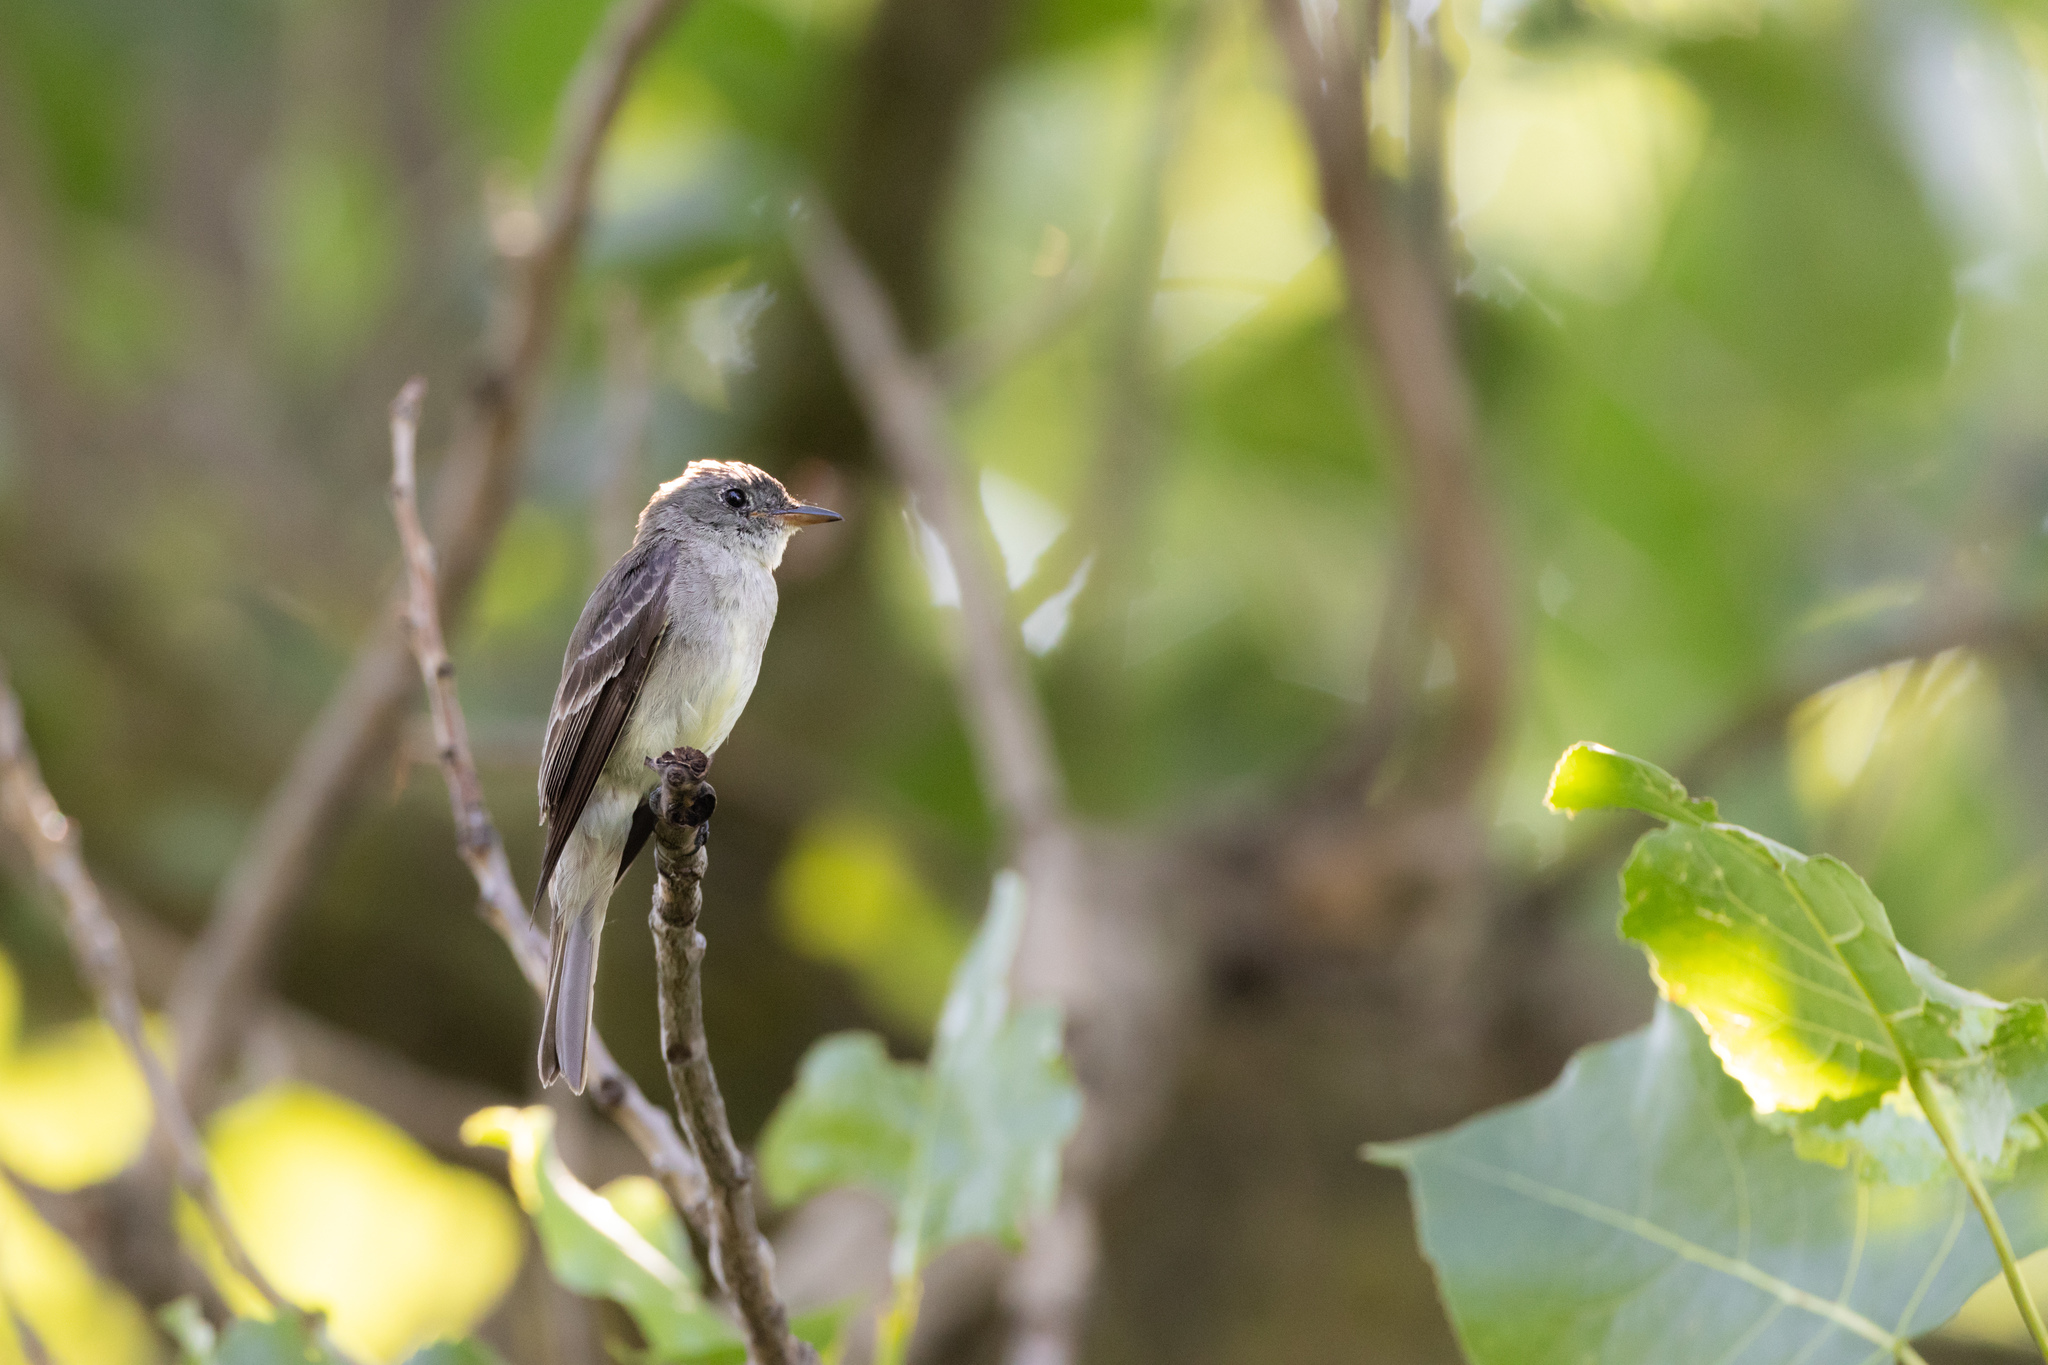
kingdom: Animalia
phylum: Chordata
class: Aves
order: Passeriformes
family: Tyrannidae
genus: Contopus
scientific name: Contopus virens
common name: Eastern wood-pewee
